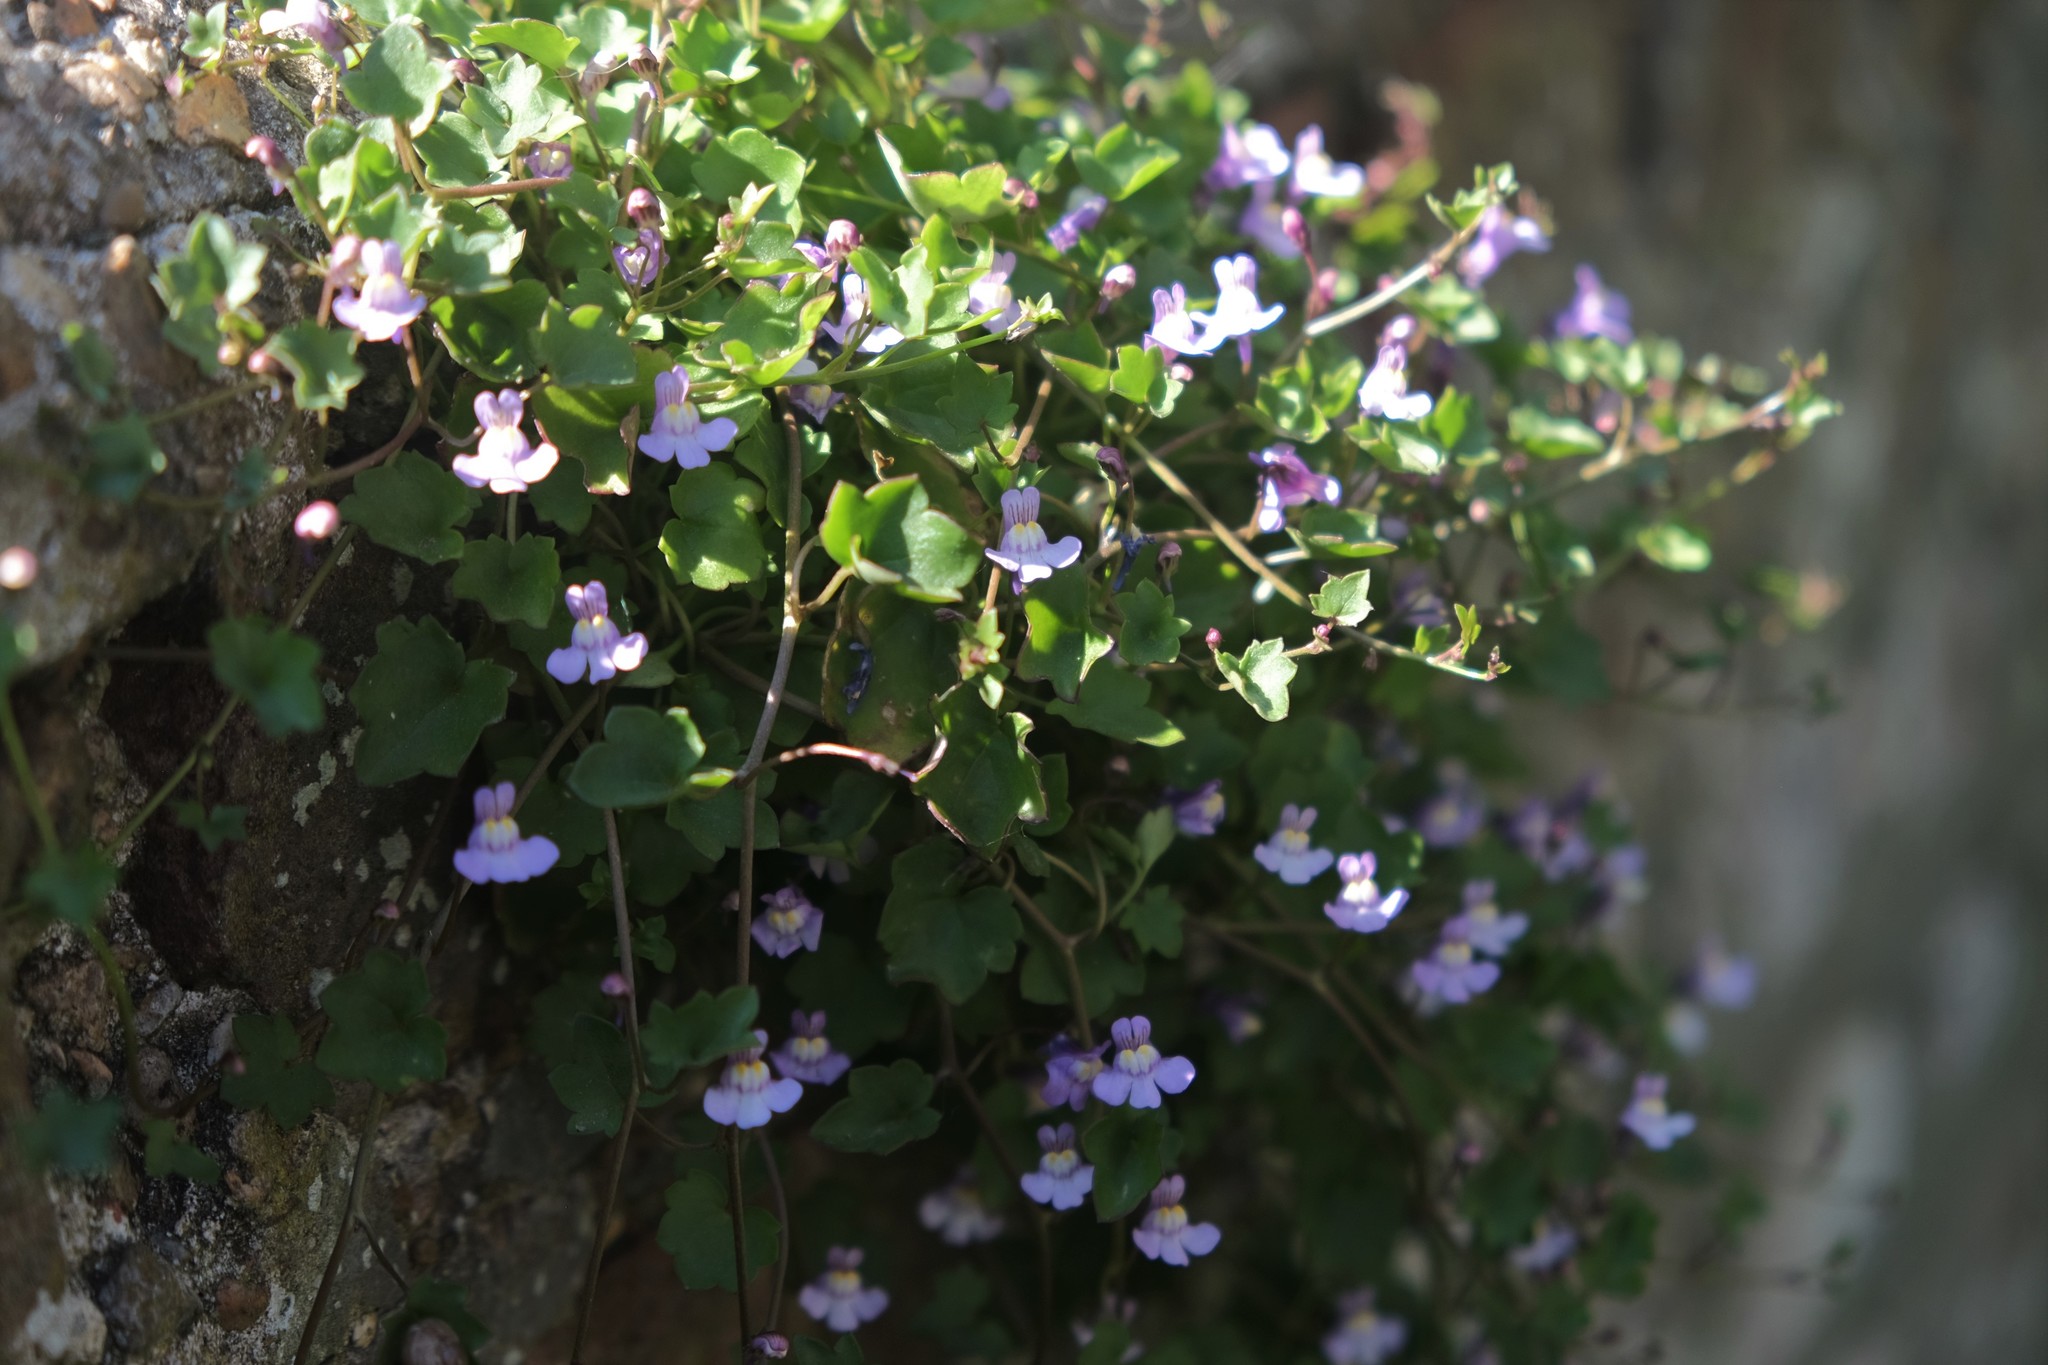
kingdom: Plantae
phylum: Tracheophyta
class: Magnoliopsida
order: Lamiales
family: Plantaginaceae
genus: Cymbalaria
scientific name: Cymbalaria muralis
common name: Ivy-leaved toadflax
